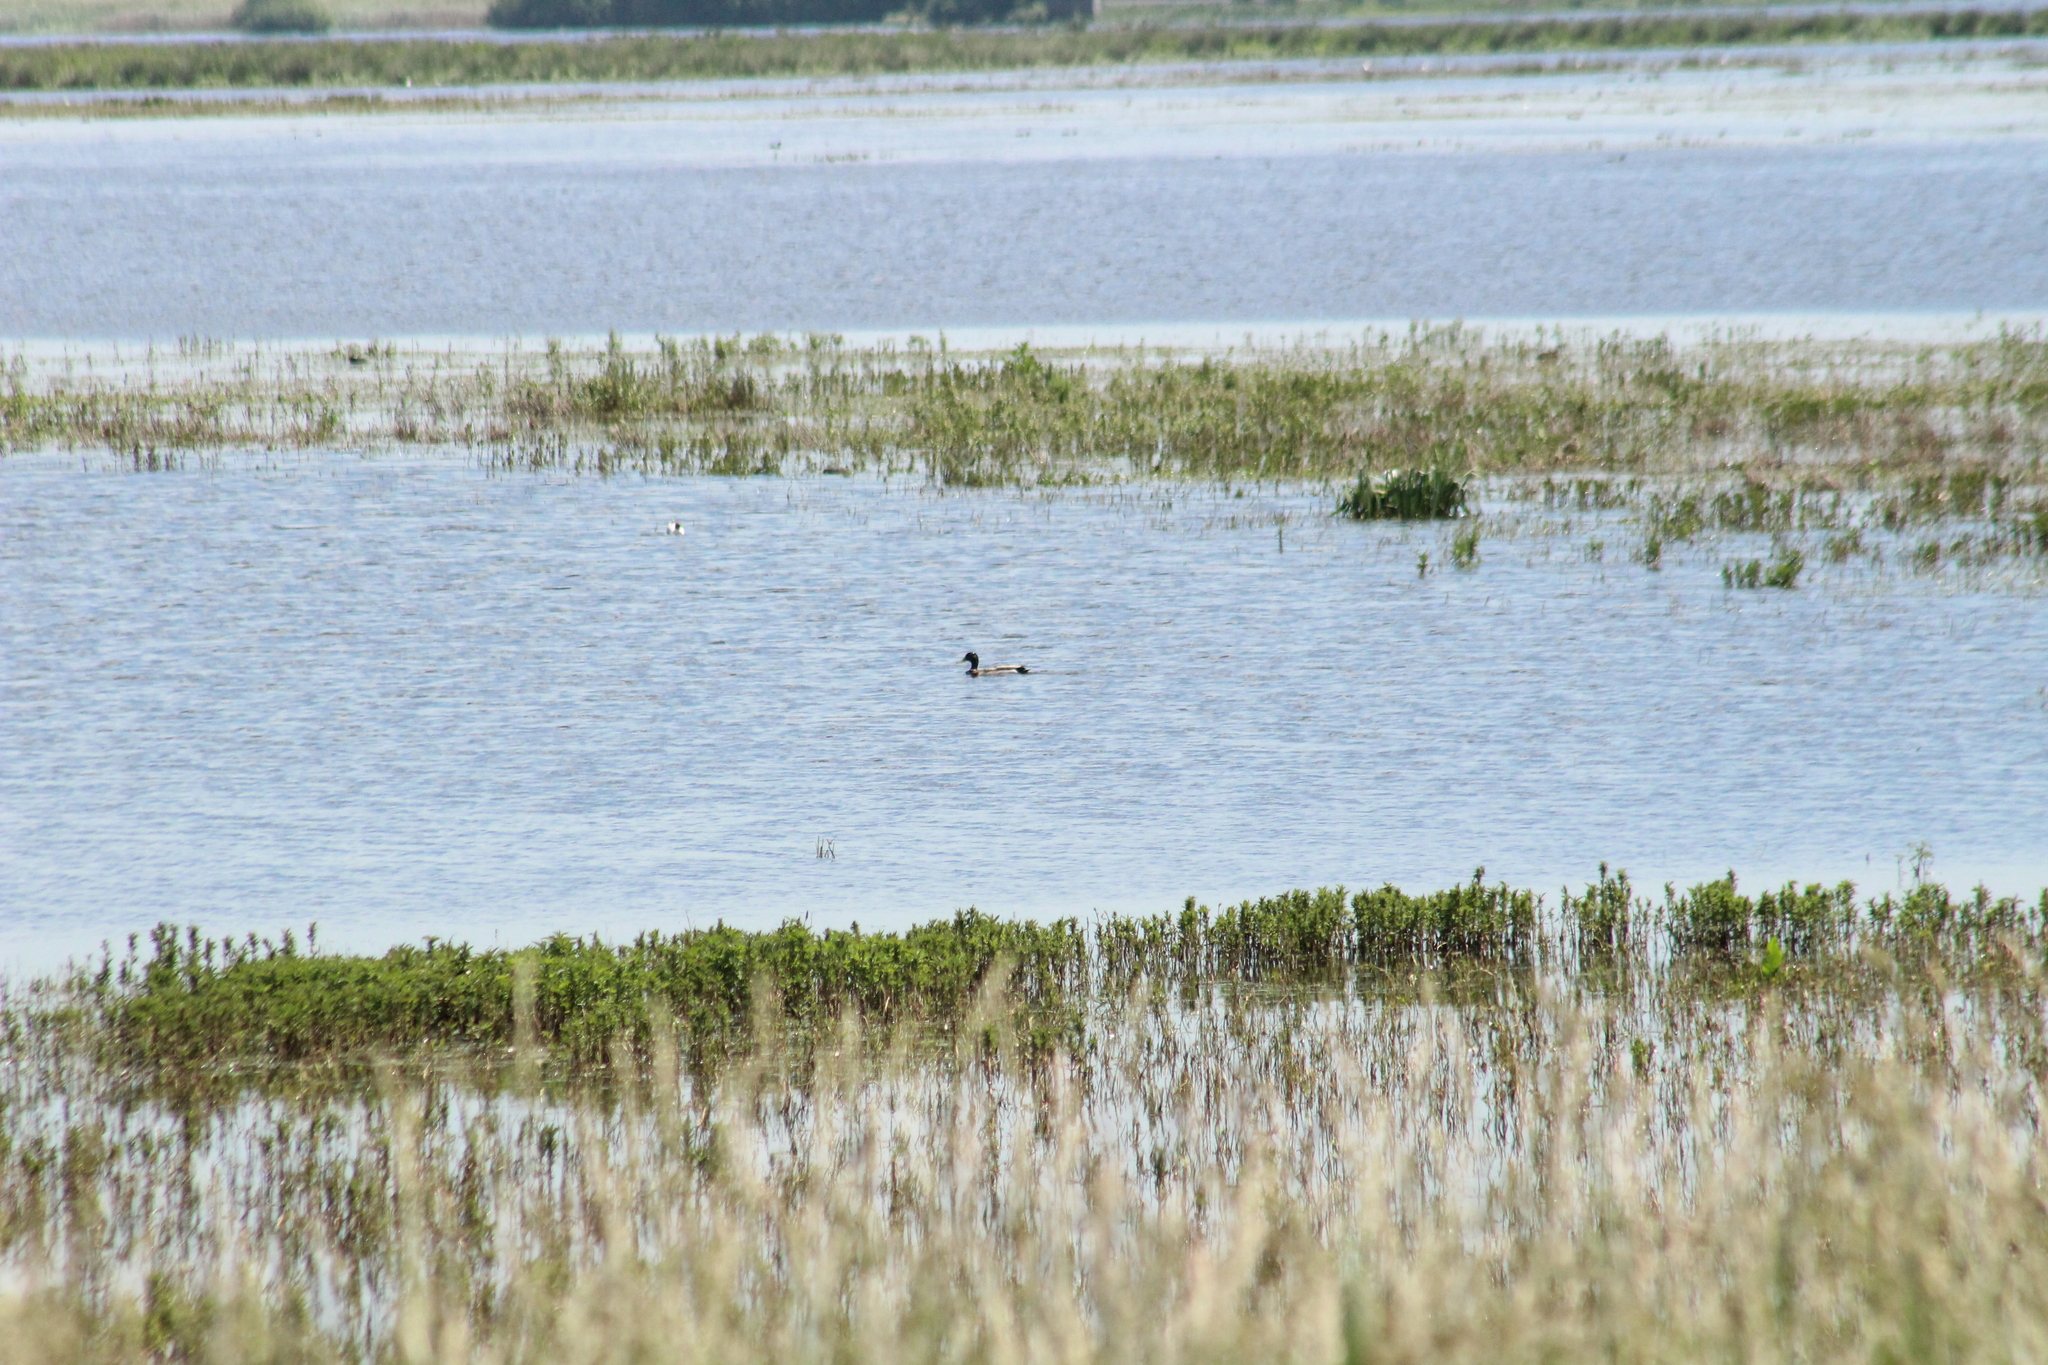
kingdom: Animalia
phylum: Chordata
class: Aves
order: Anseriformes
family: Anatidae
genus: Anas
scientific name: Anas platyrhynchos
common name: Mallard
